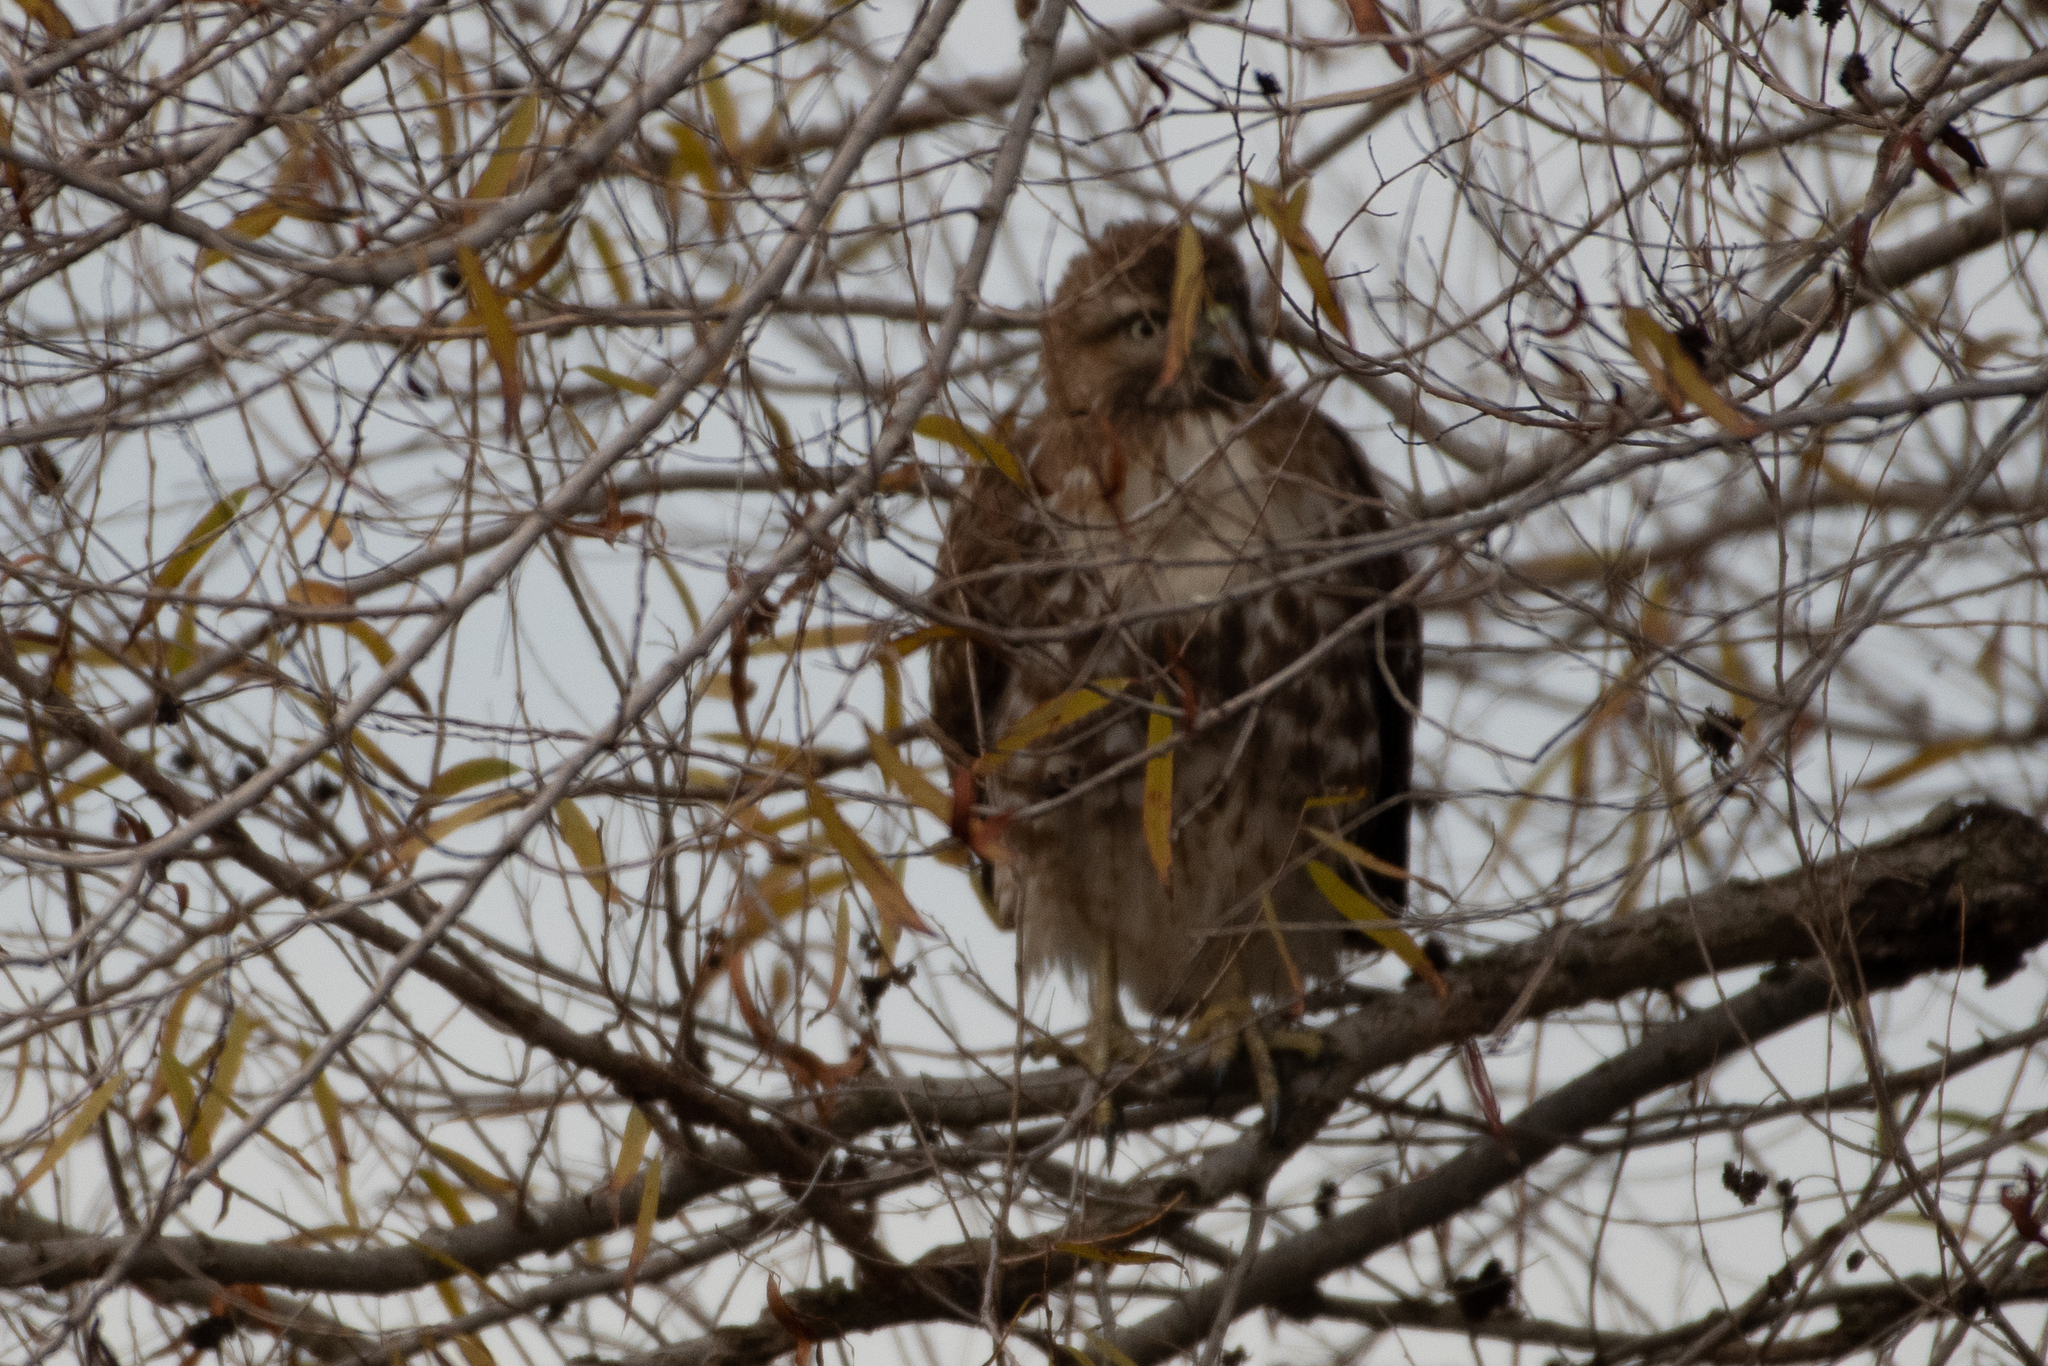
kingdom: Animalia
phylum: Chordata
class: Aves
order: Accipitriformes
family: Accipitridae
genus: Buteo
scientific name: Buteo jamaicensis
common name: Red-tailed hawk
